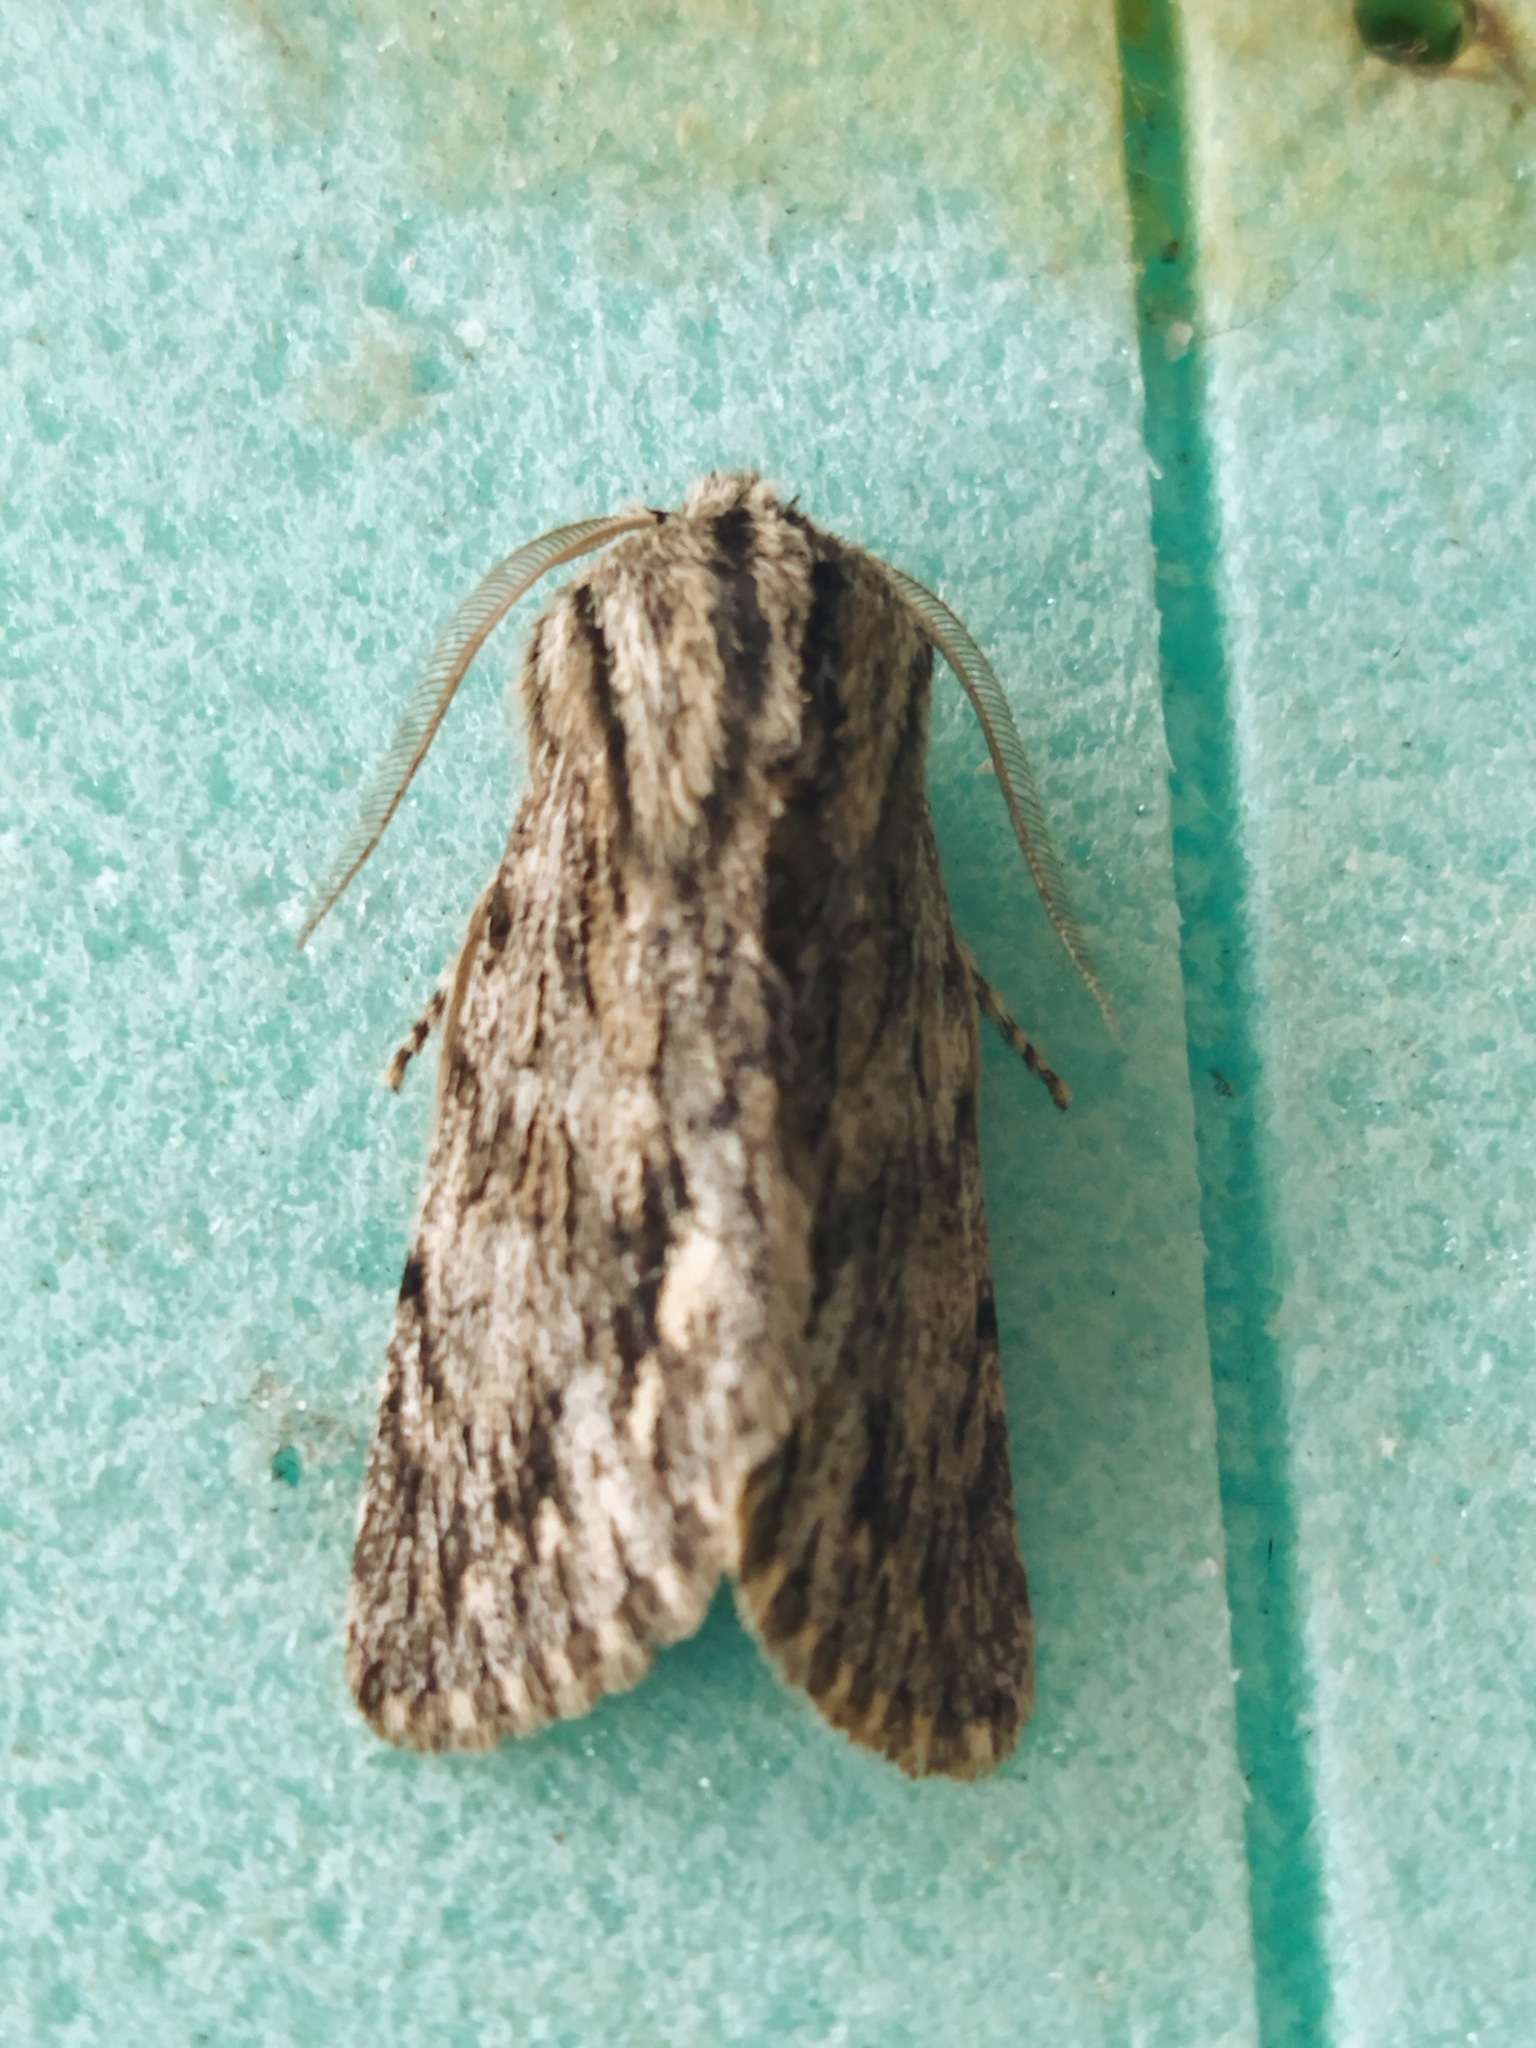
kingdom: Animalia
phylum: Arthropoda
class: Insecta
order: Lepidoptera
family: Noctuidae
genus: Asteroscopus
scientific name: Asteroscopus sphinx
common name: The sprawler
